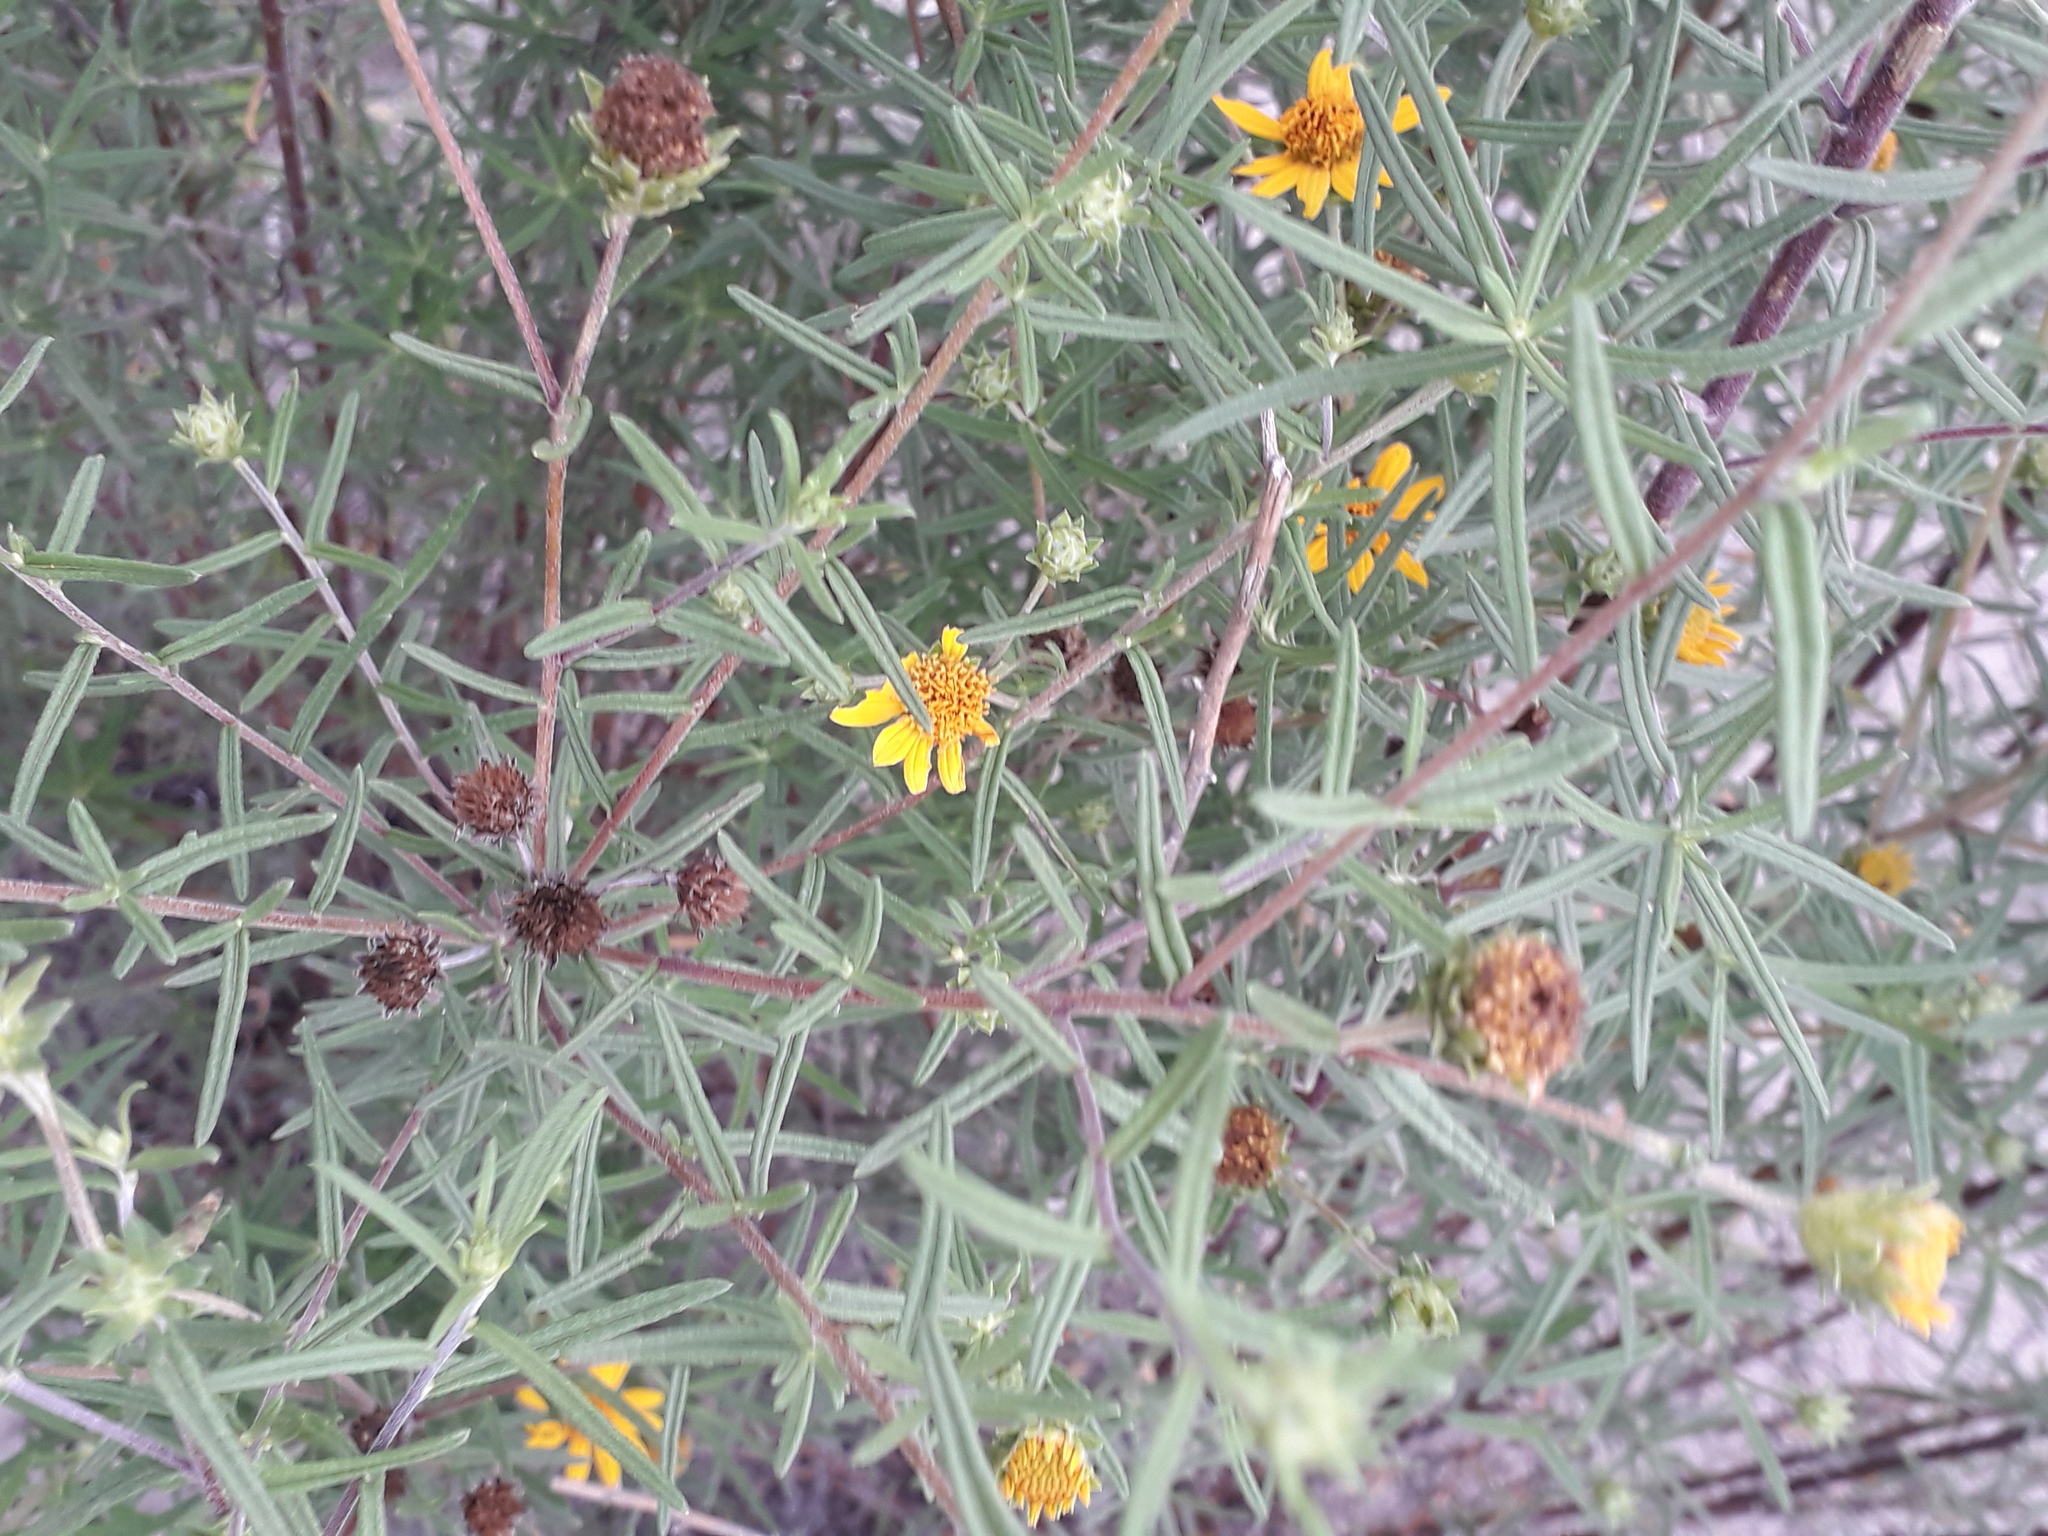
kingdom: Plantae
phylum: Tracheophyta
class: Magnoliopsida
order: Asterales
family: Asteraceae
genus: Aldama
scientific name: Aldama linearis
